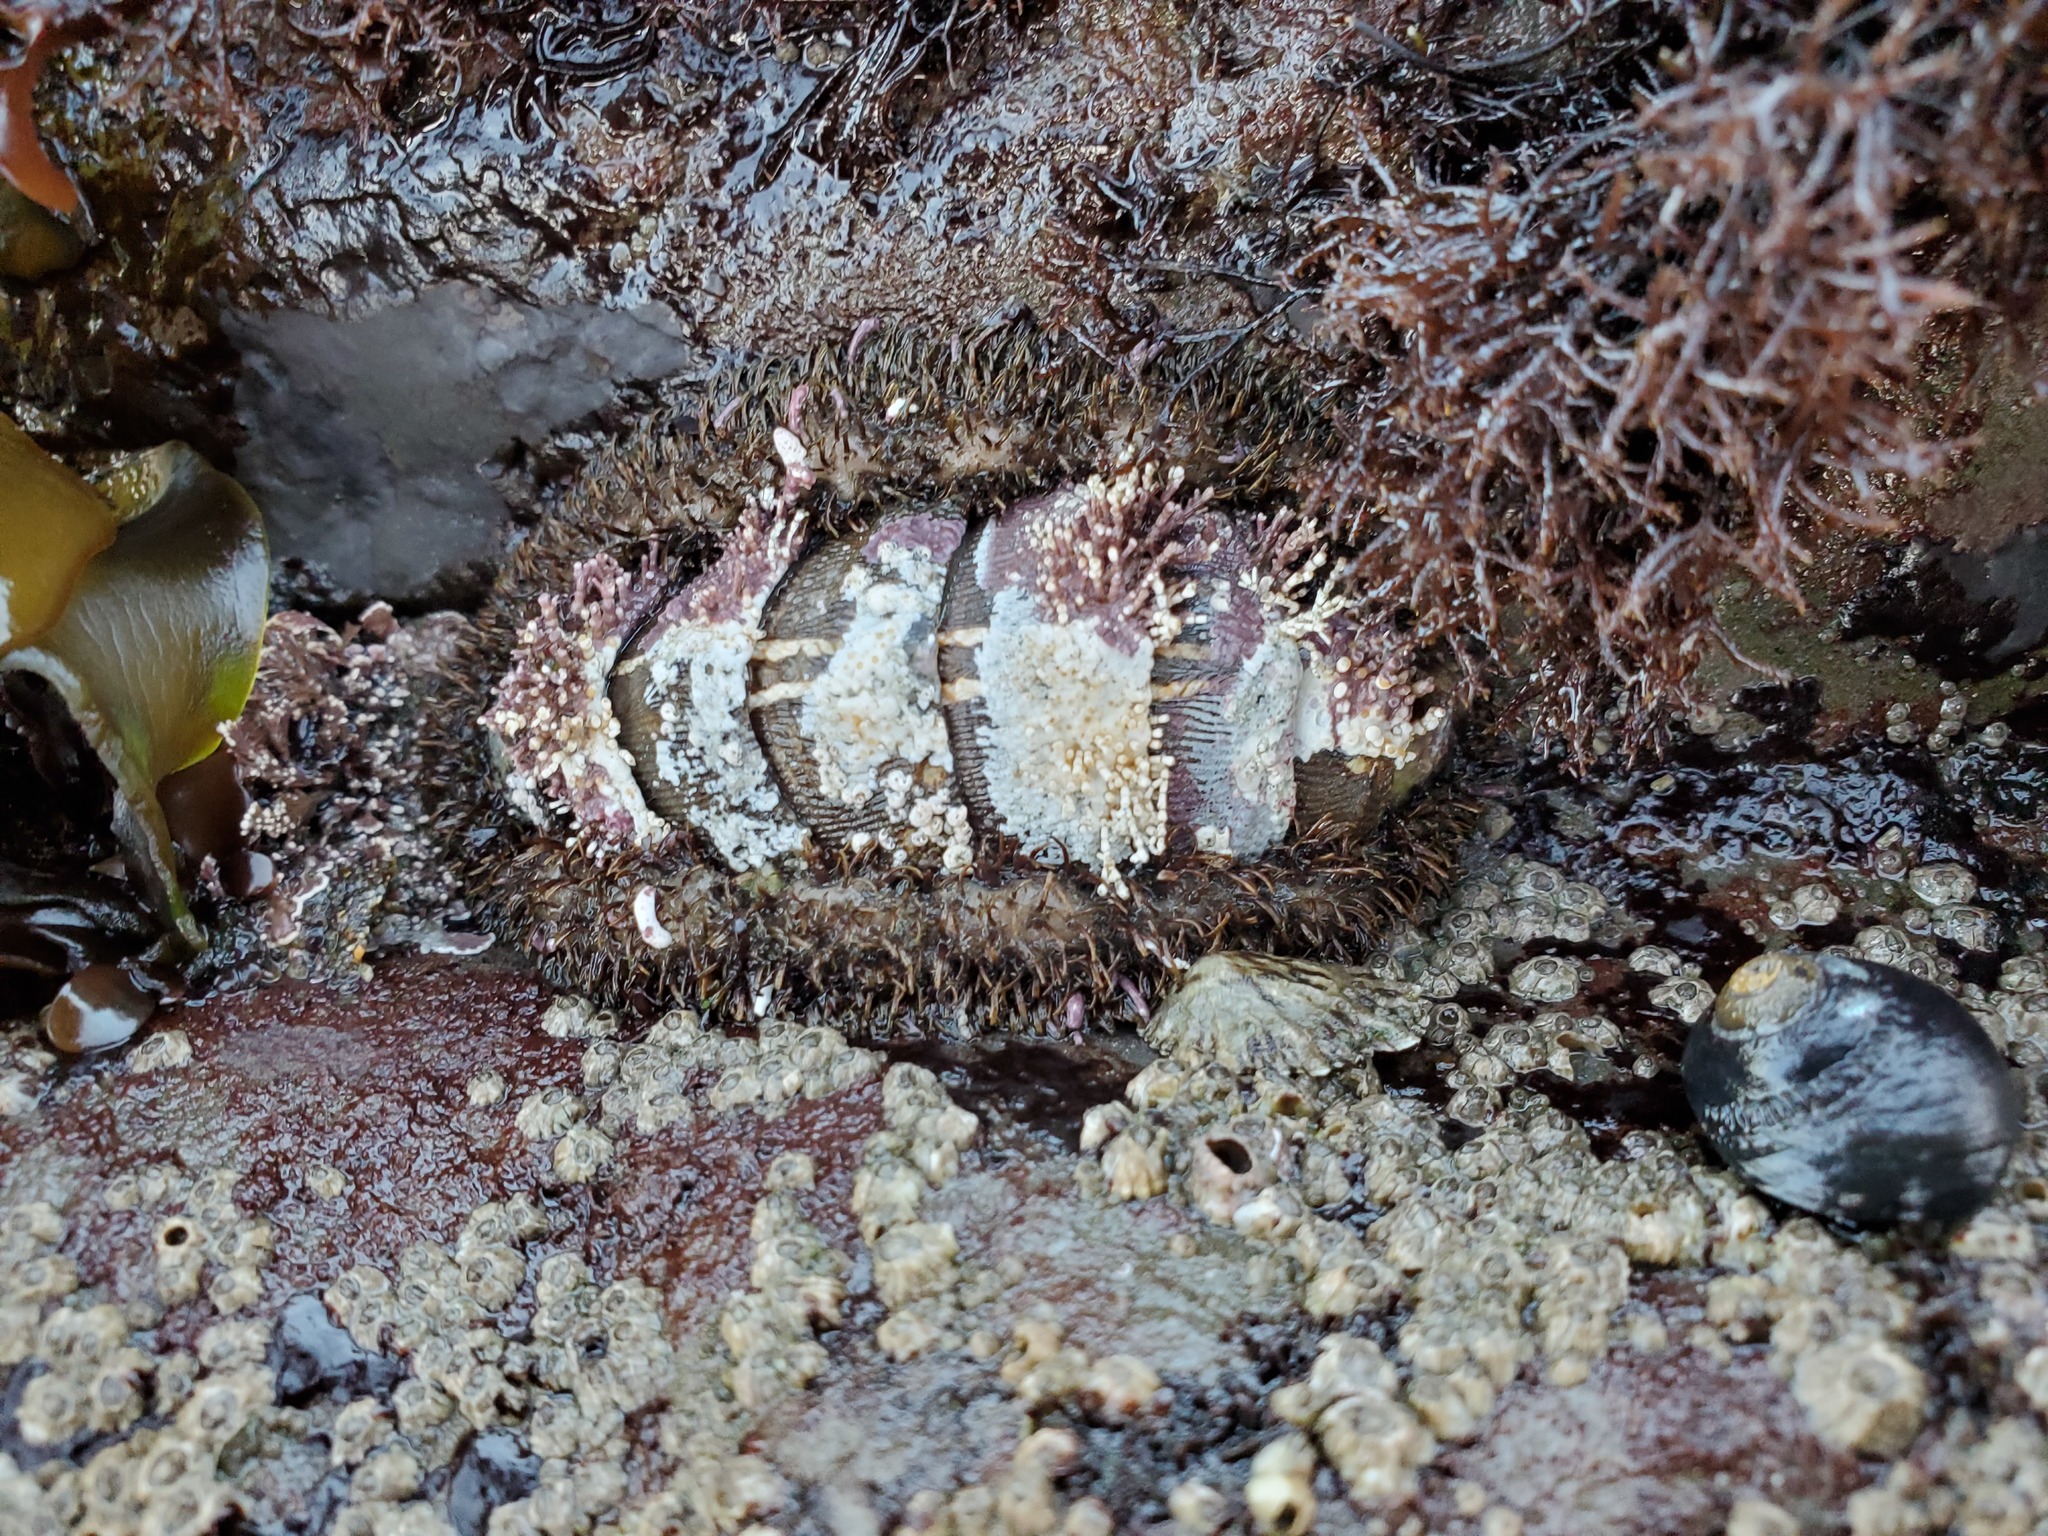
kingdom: Animalia
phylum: Mollusca
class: Polyplacophora
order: Chitonida
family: Mopaliidae
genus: Mopalia
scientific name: Mopalia muscosa
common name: Mossy chiton
